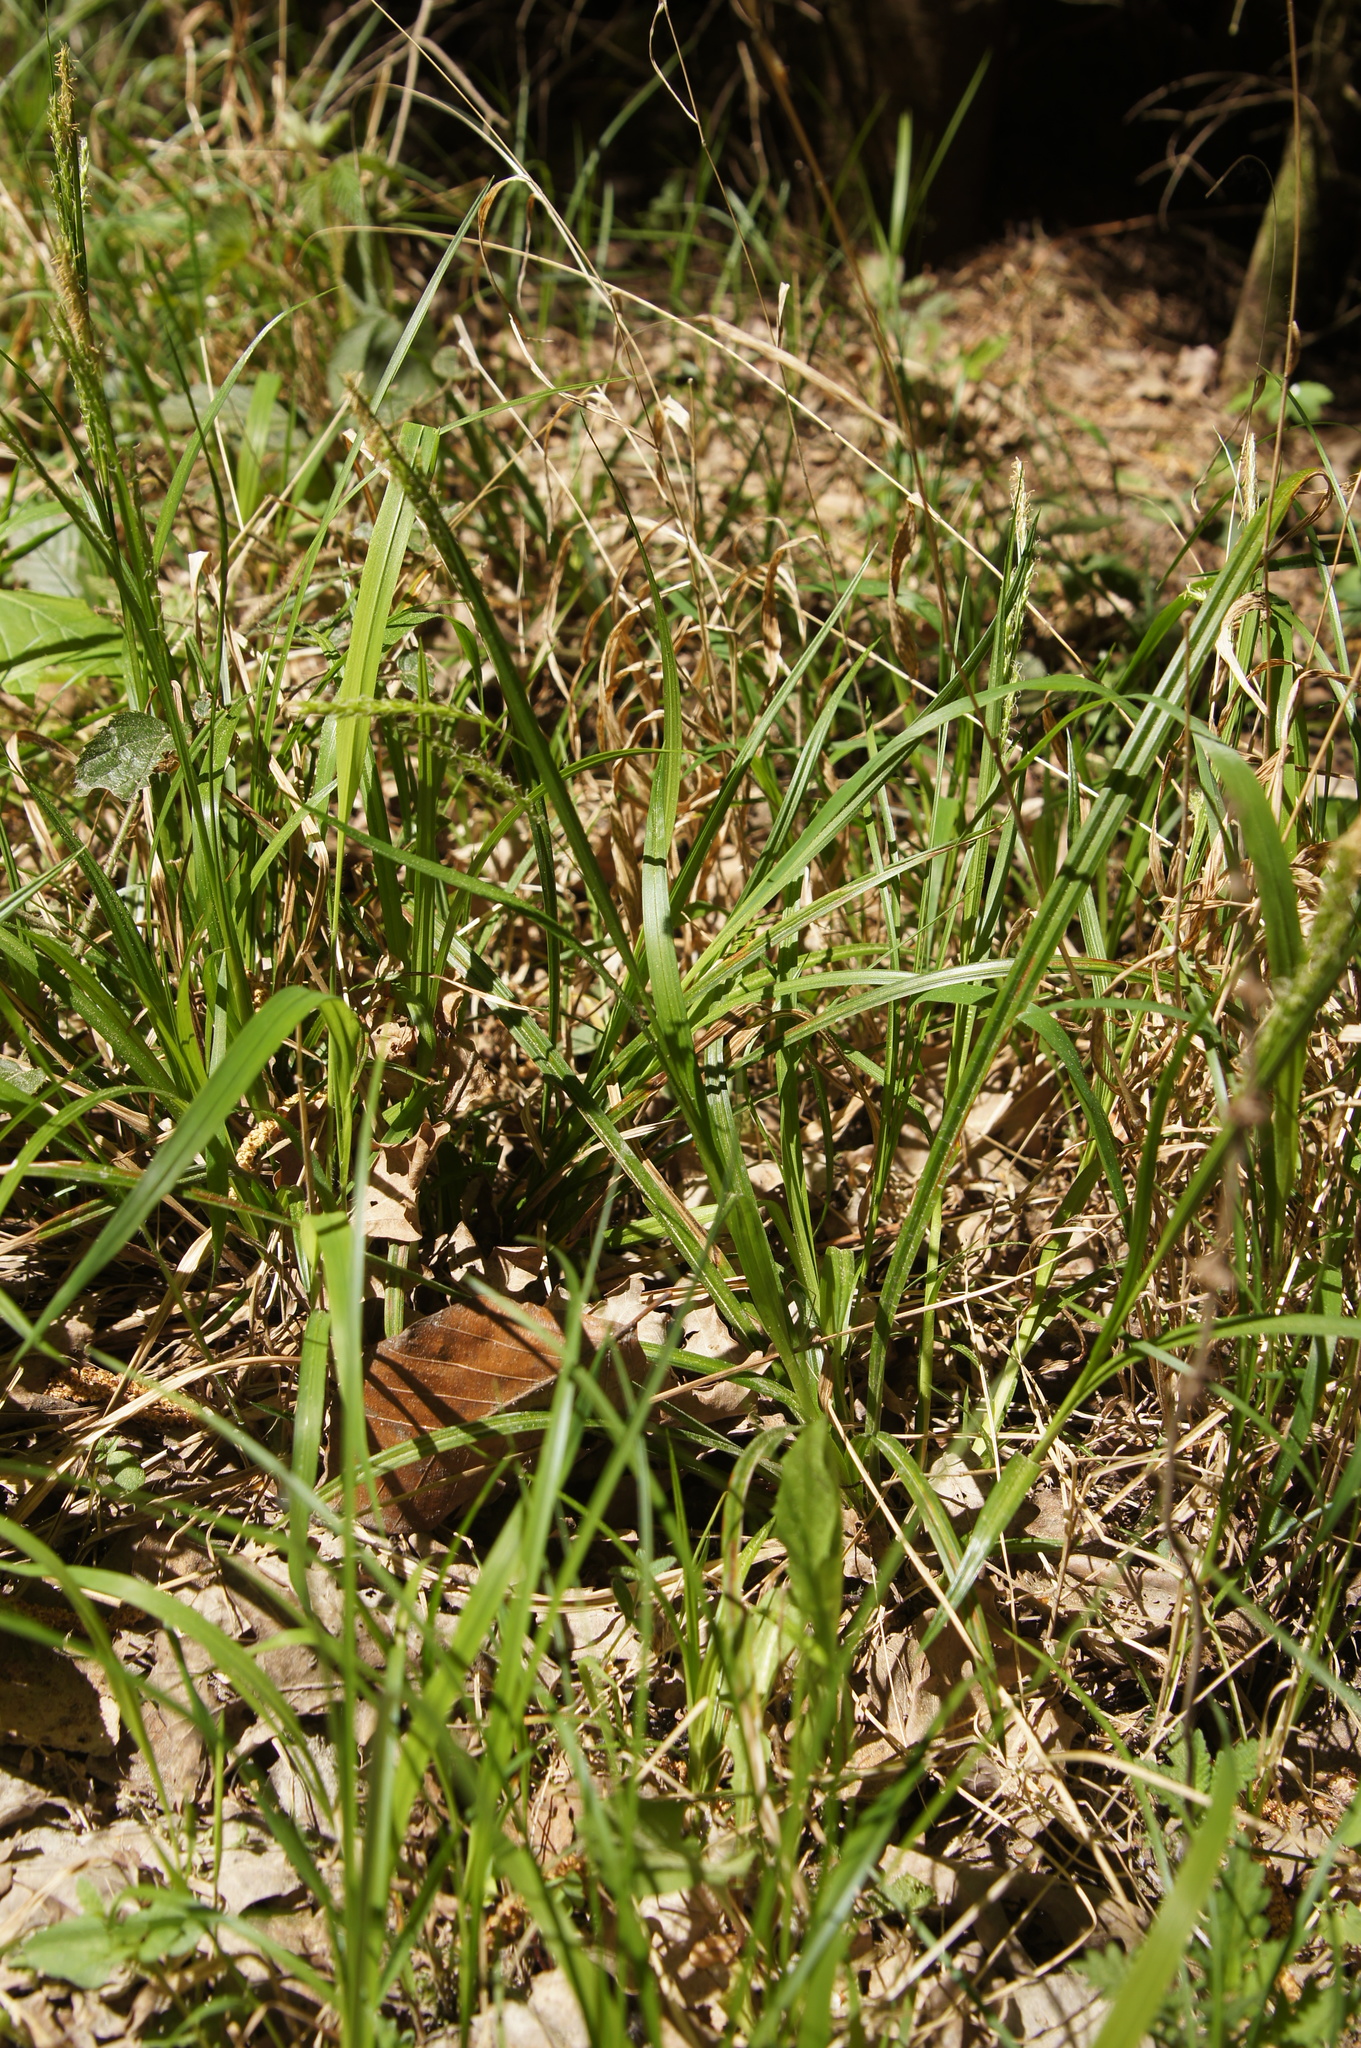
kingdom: Plantae
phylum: Tracheophyta
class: Liliopsida
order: Poales
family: Cyperaceae
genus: Carex
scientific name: Carex sylvatica
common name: Wood-sedge
